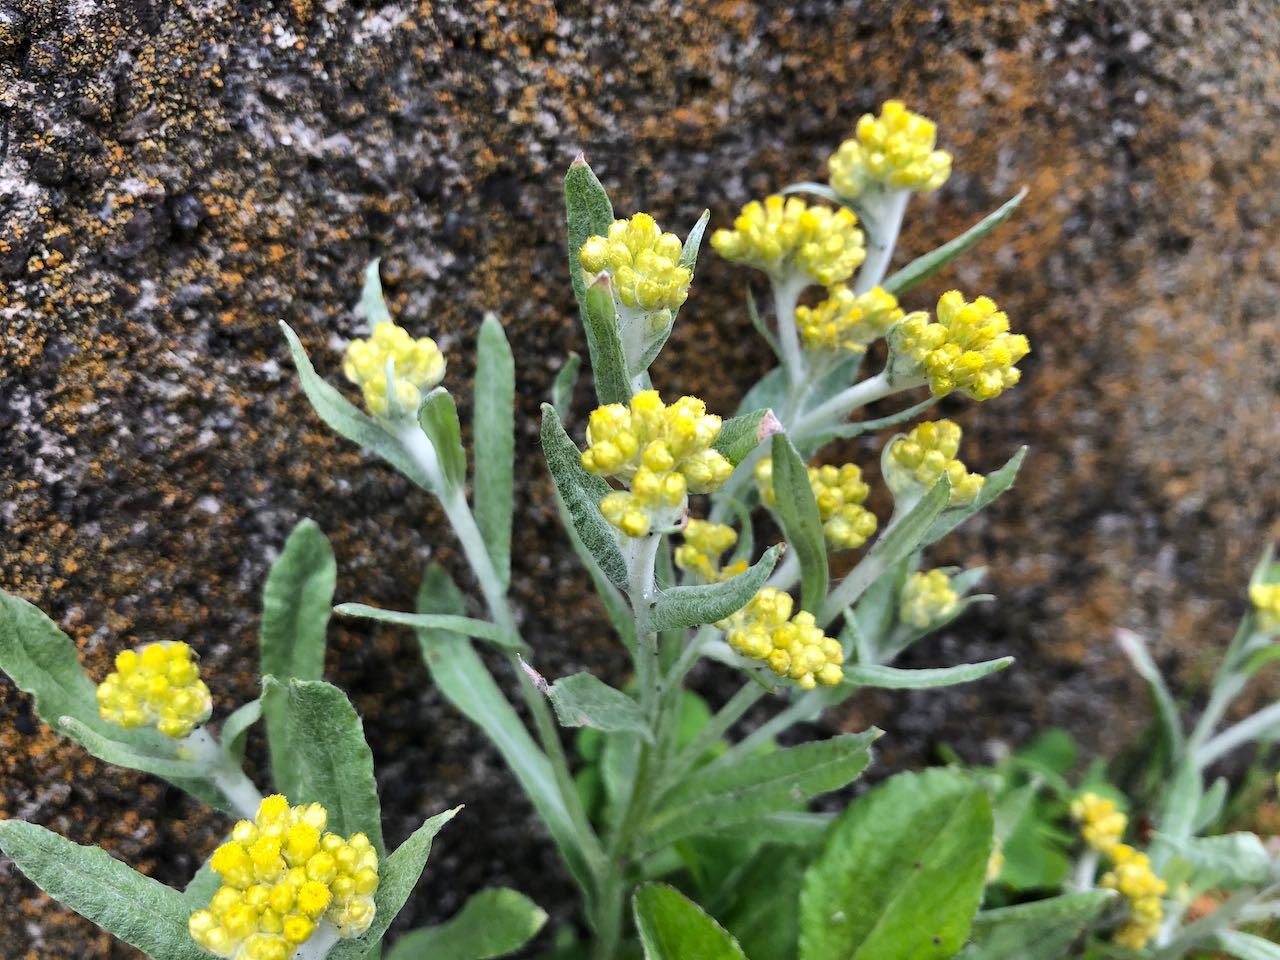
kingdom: Plantae
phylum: Tracheophyta
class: Magnoliopsida
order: Asterales
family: Asteraceae
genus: Pseudognaphalium
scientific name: Pseudognaphalium affine
